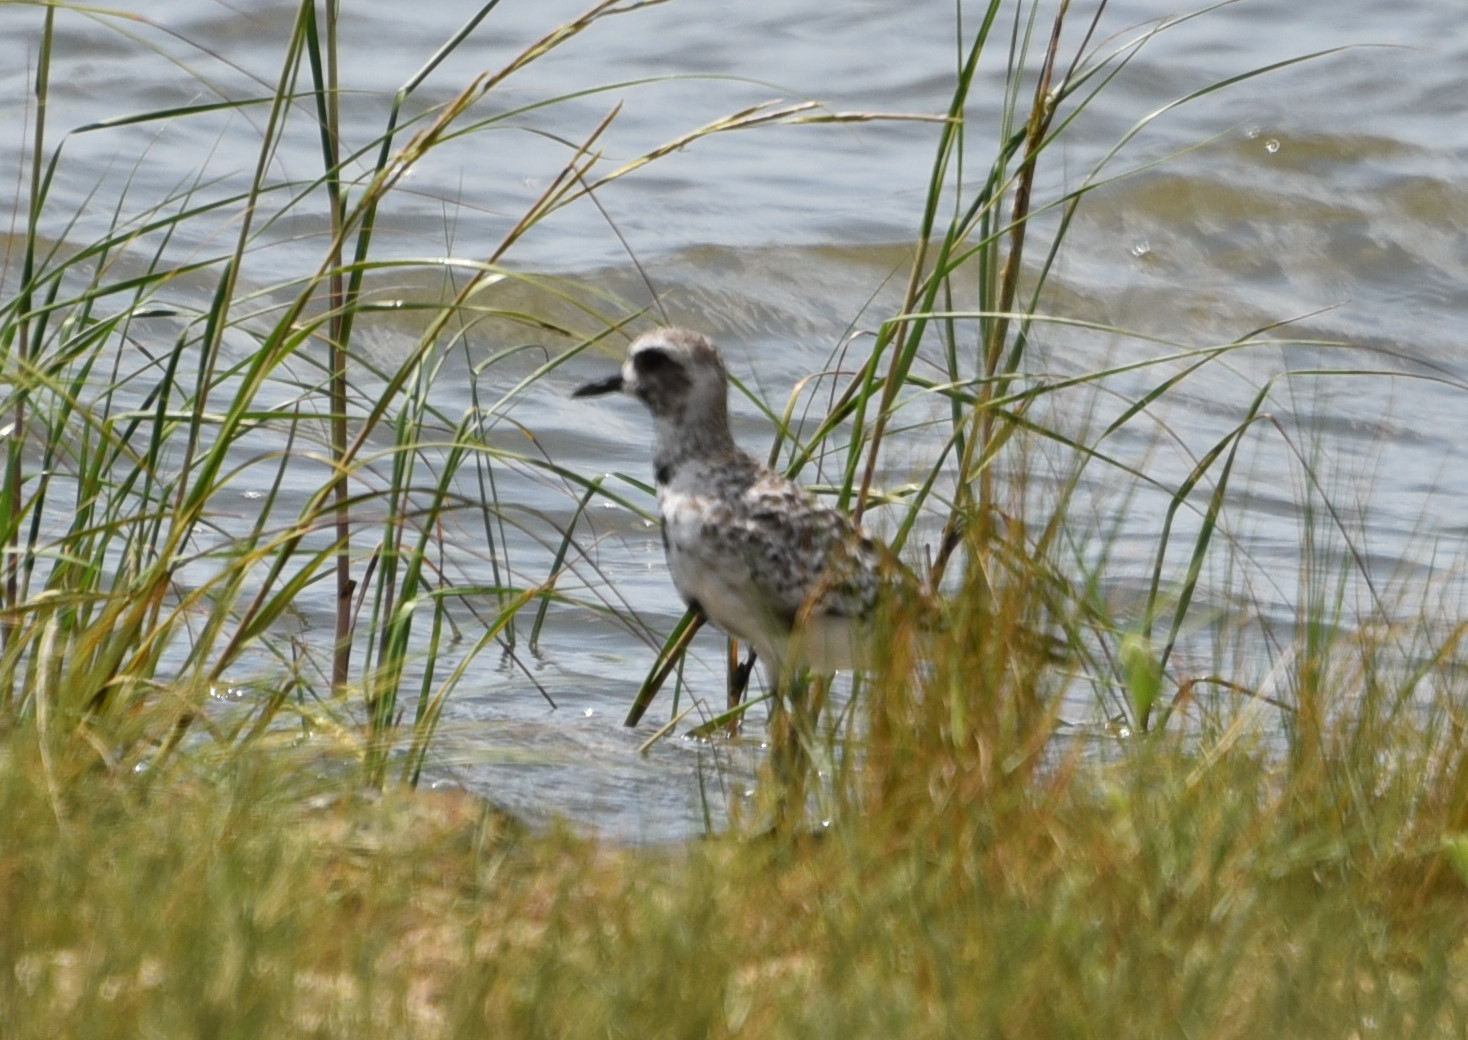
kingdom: Animalia
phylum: Chordata
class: Aves
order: Charadriiformes
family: Charadriidae
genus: Pluvialis
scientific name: Pluvialis squatarola
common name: Grey plover
